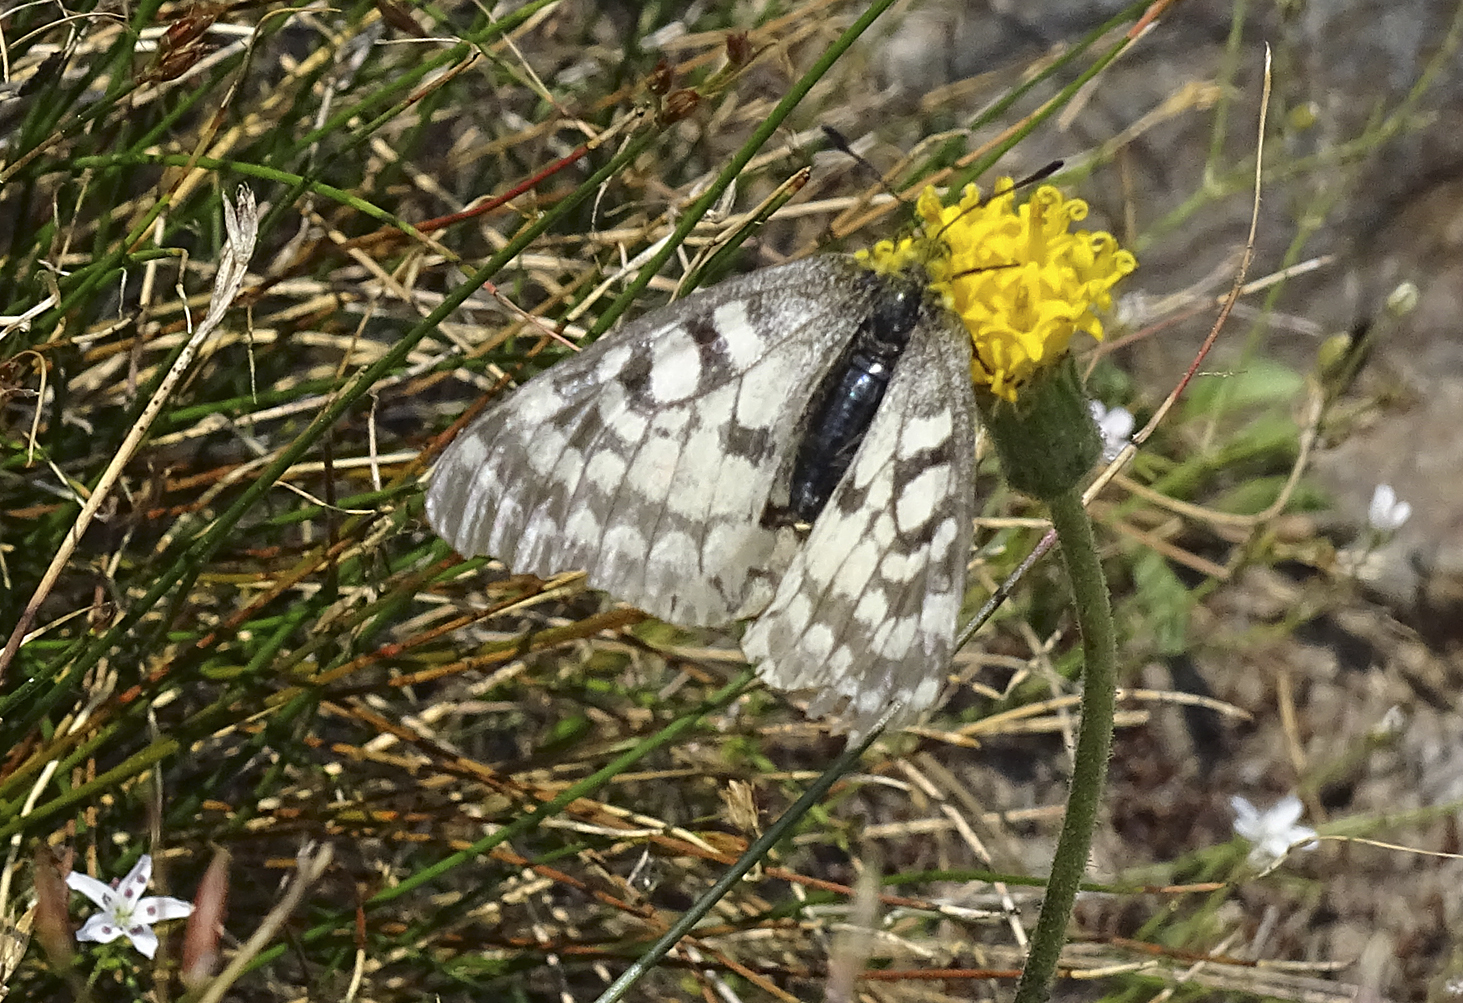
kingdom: Animalia
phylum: Arthropoda
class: Insecta
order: Lepidoptera
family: Papilionidae
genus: Parnassius
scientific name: Parnassius clodius
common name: American apollo
